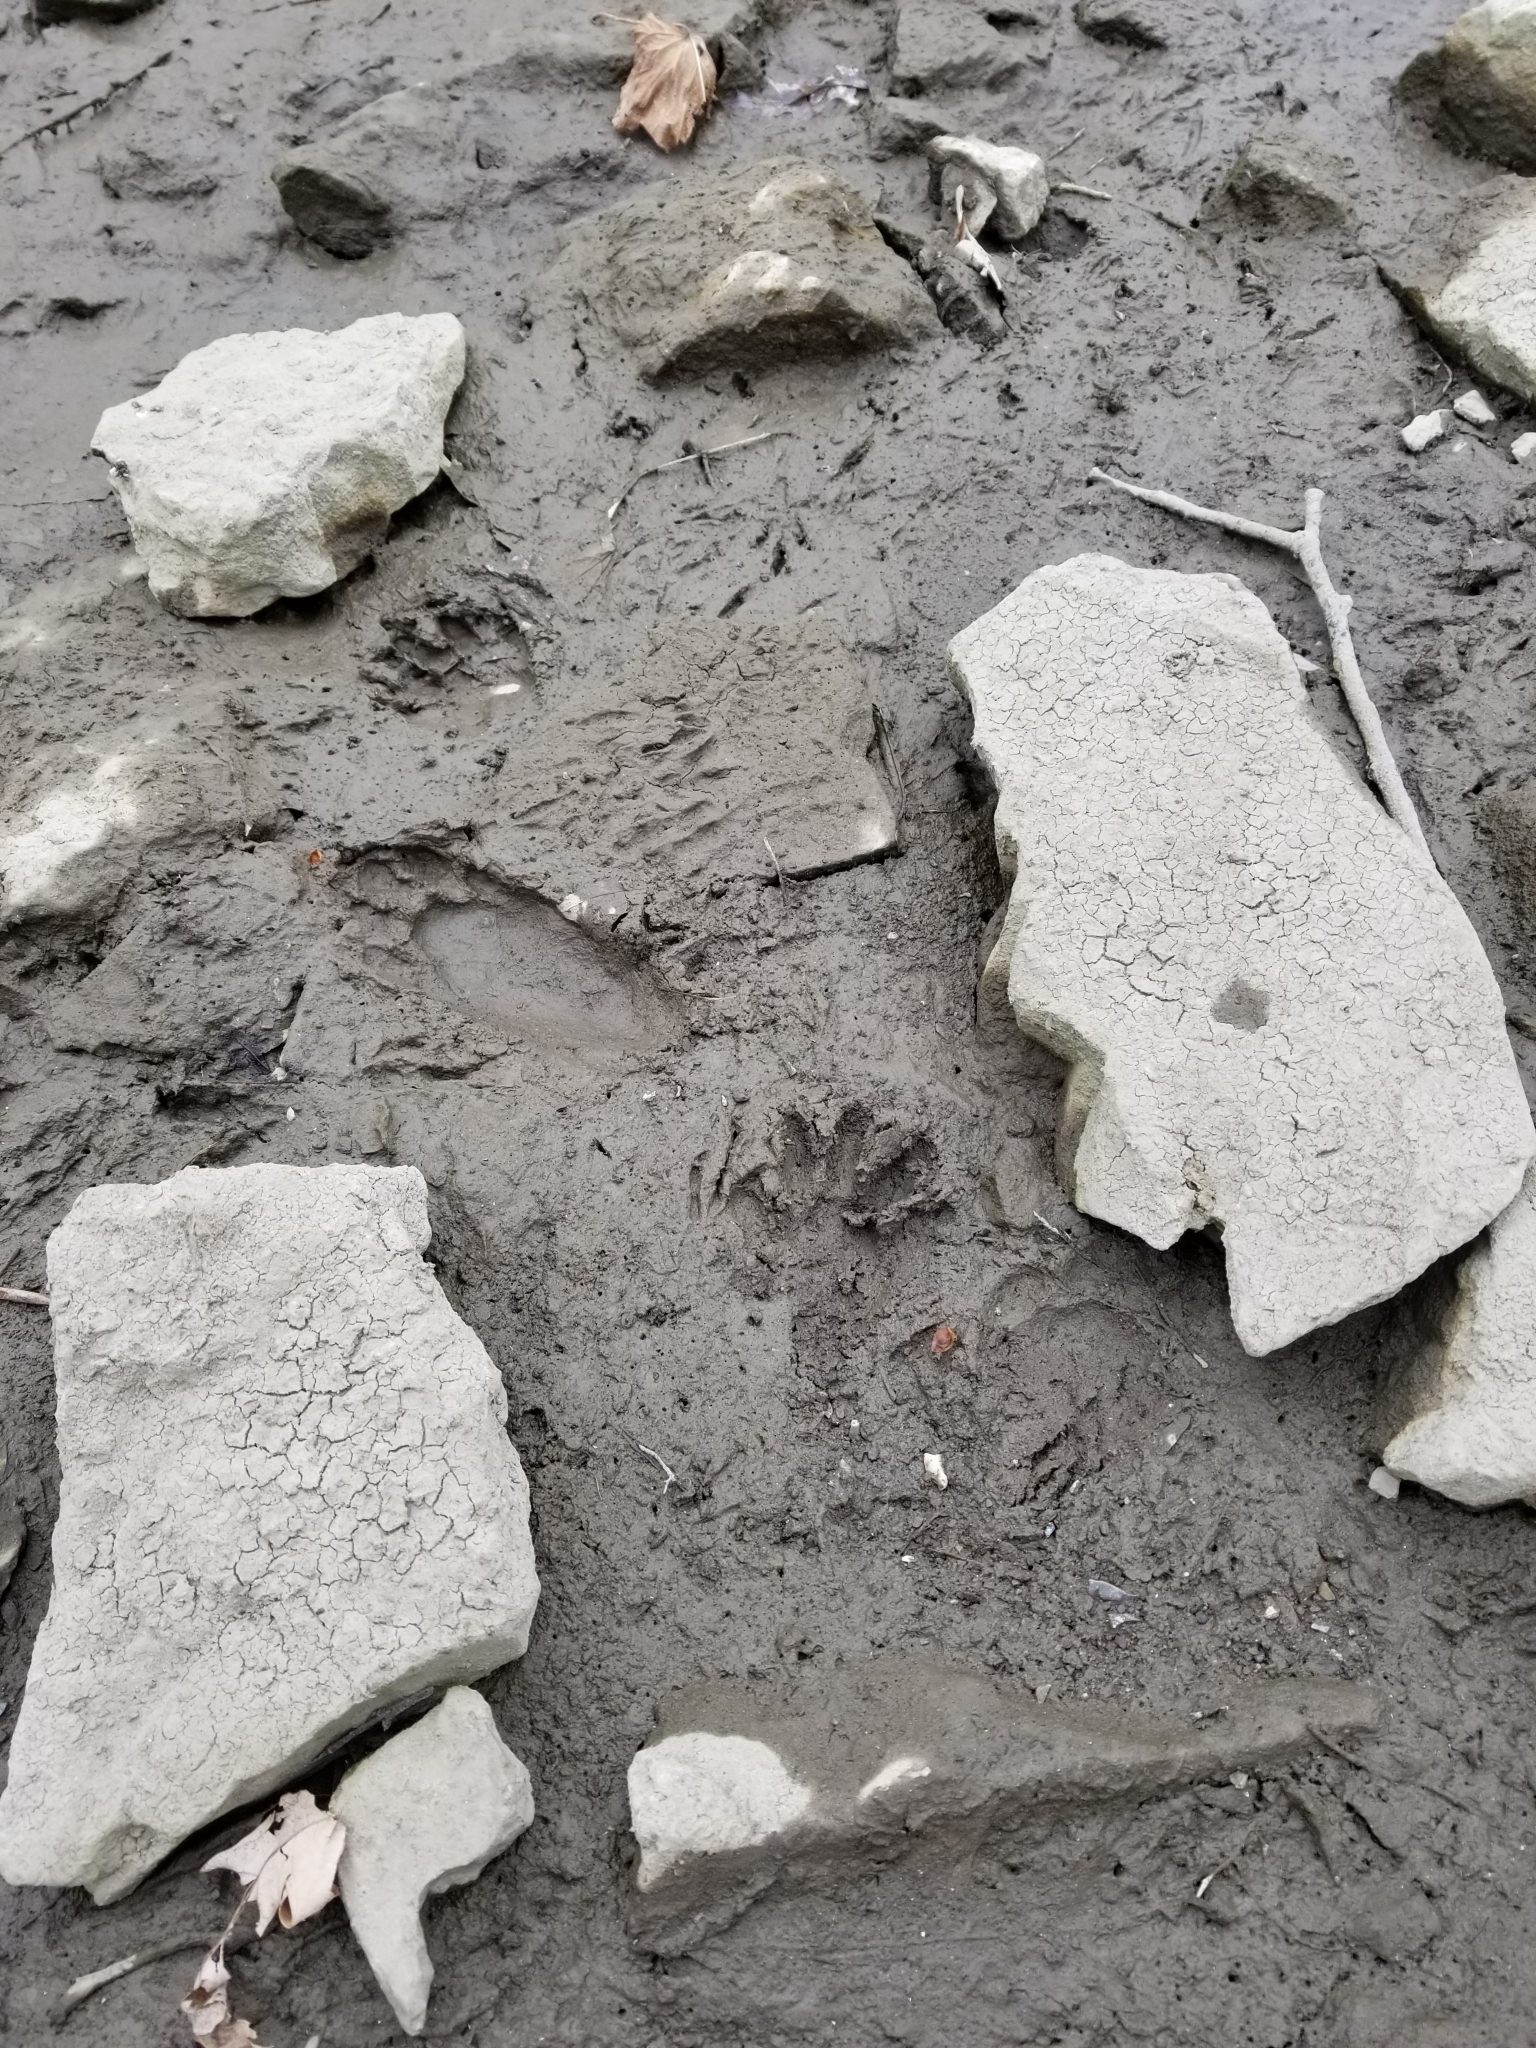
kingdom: Animalia
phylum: Chordata
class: Mammalia
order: Carnivora
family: Procyonidae
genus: Procyon
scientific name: Procyon lotor
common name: Raccoon
